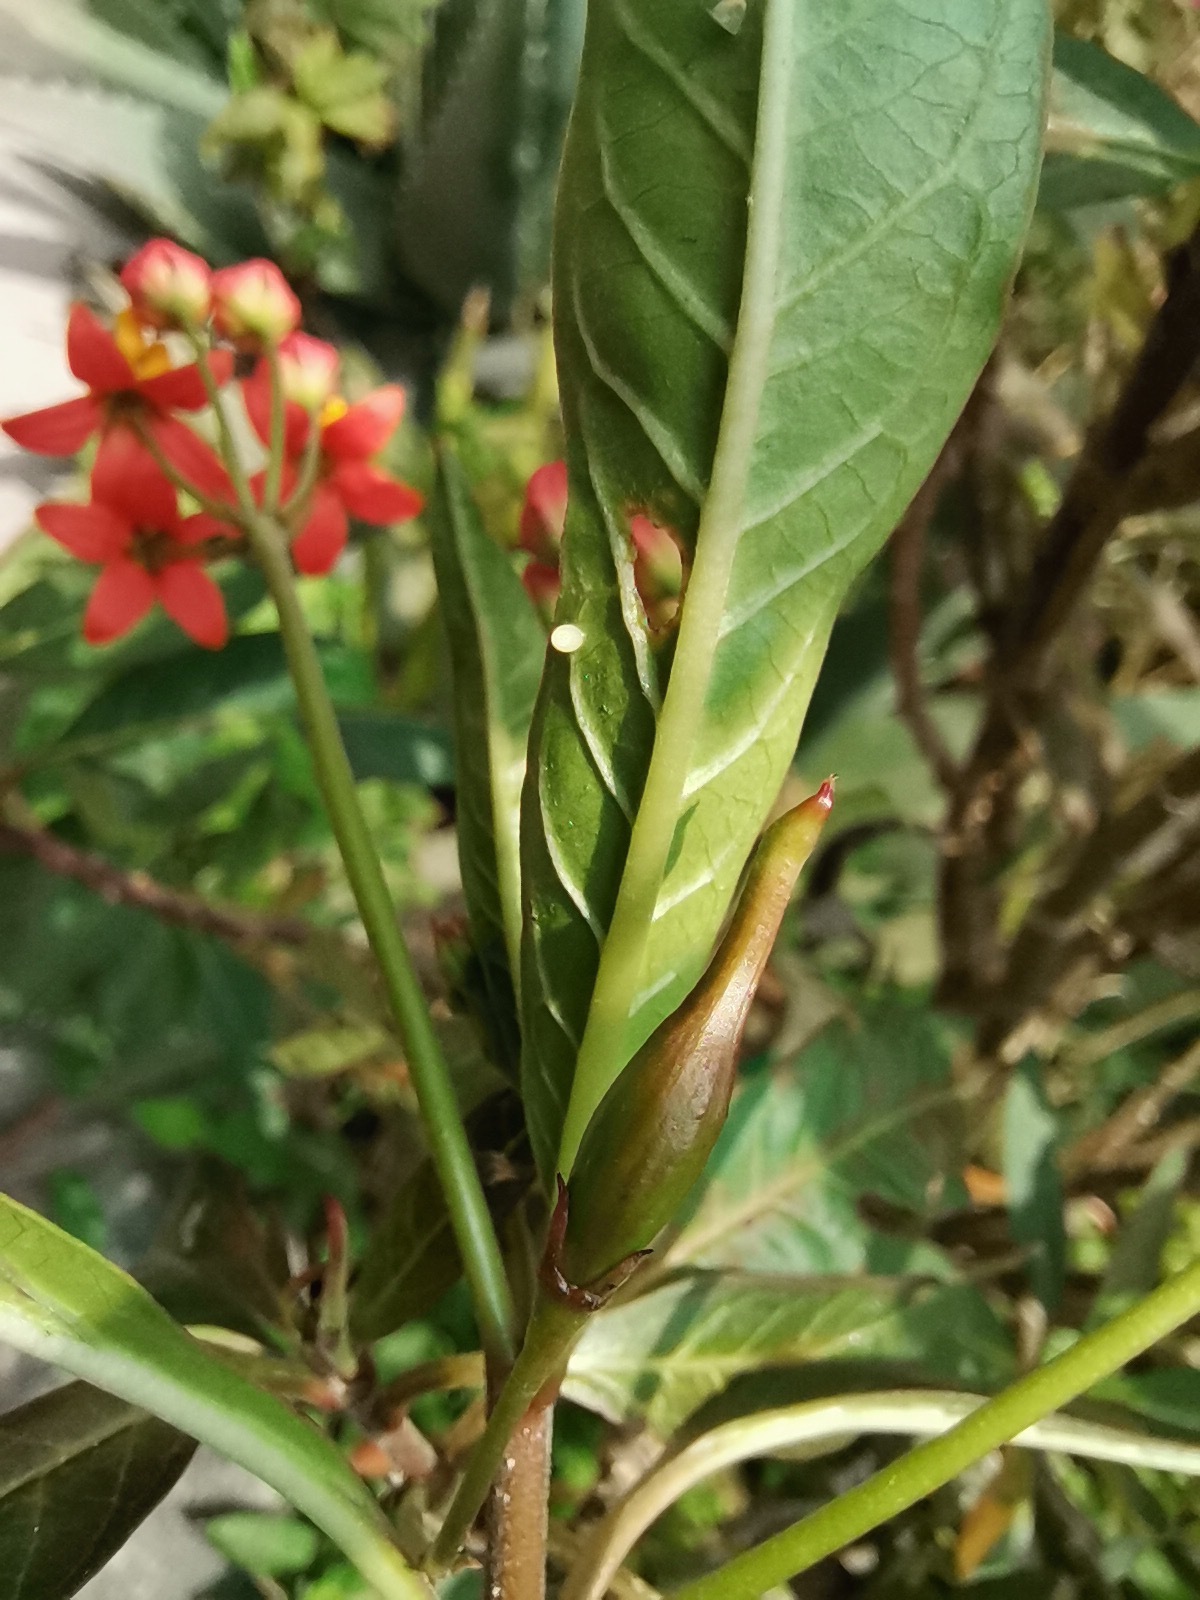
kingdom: Animalia
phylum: Arthropoda
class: Insecta
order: Lepidoptera
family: Nymphalidae
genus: Danaus
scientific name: Danaus plexippus
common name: Monarch
